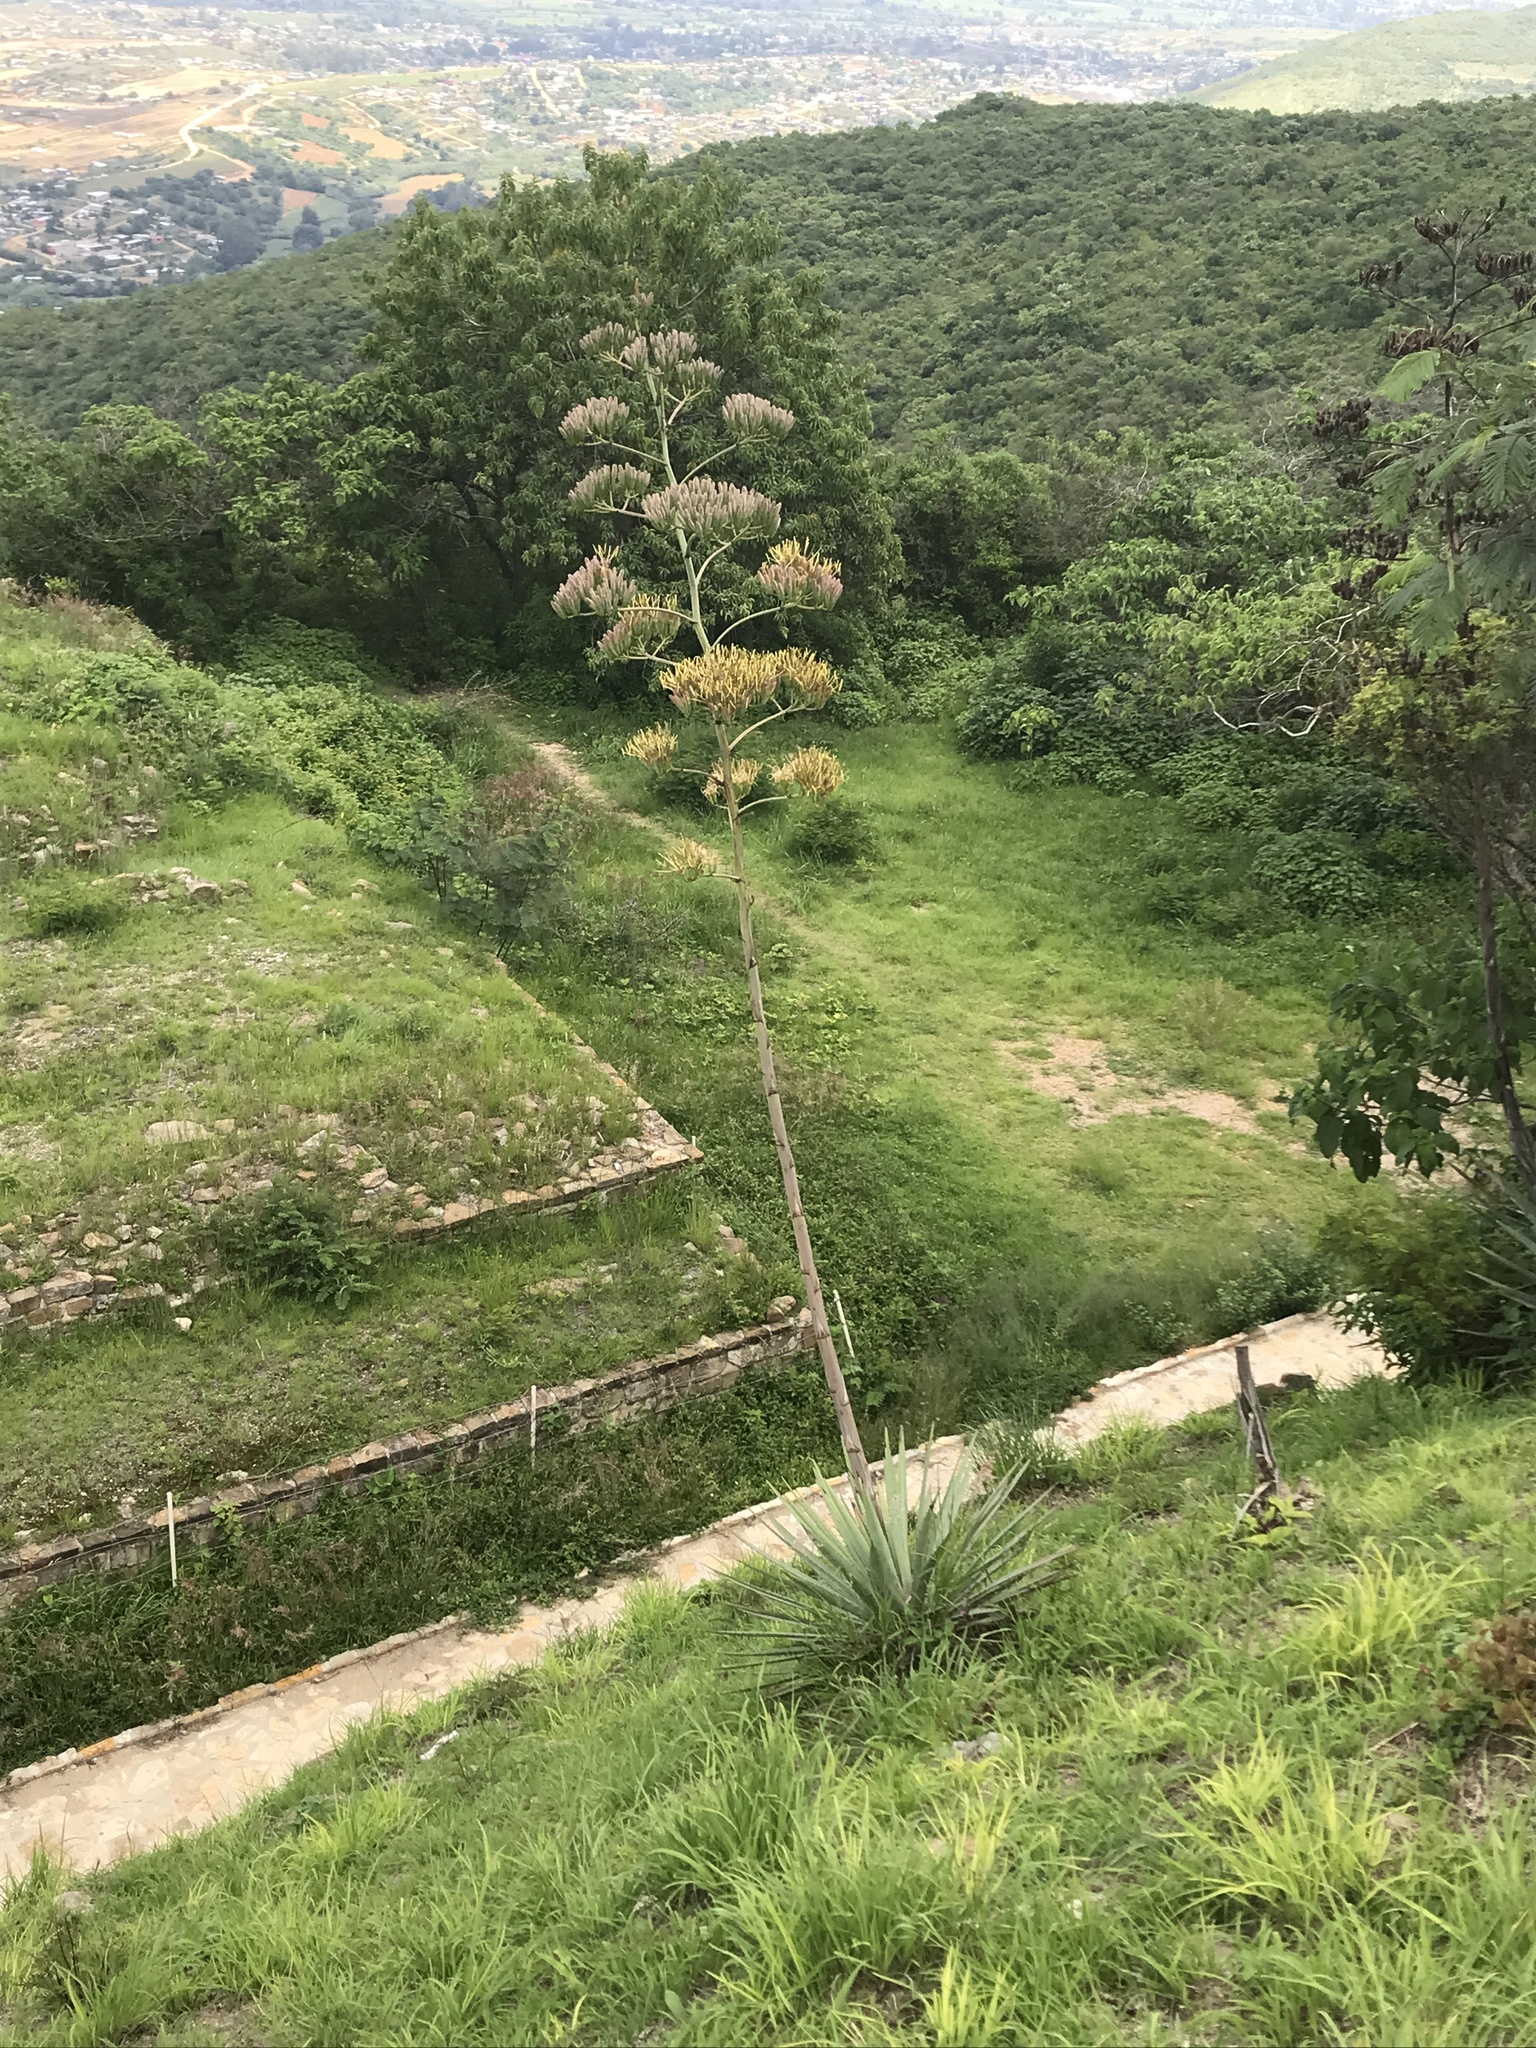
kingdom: Plantae
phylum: Tracheophyta
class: Liliopsida
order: Asparagales
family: Asparagaceae
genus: Agave
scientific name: Agave vivipara
